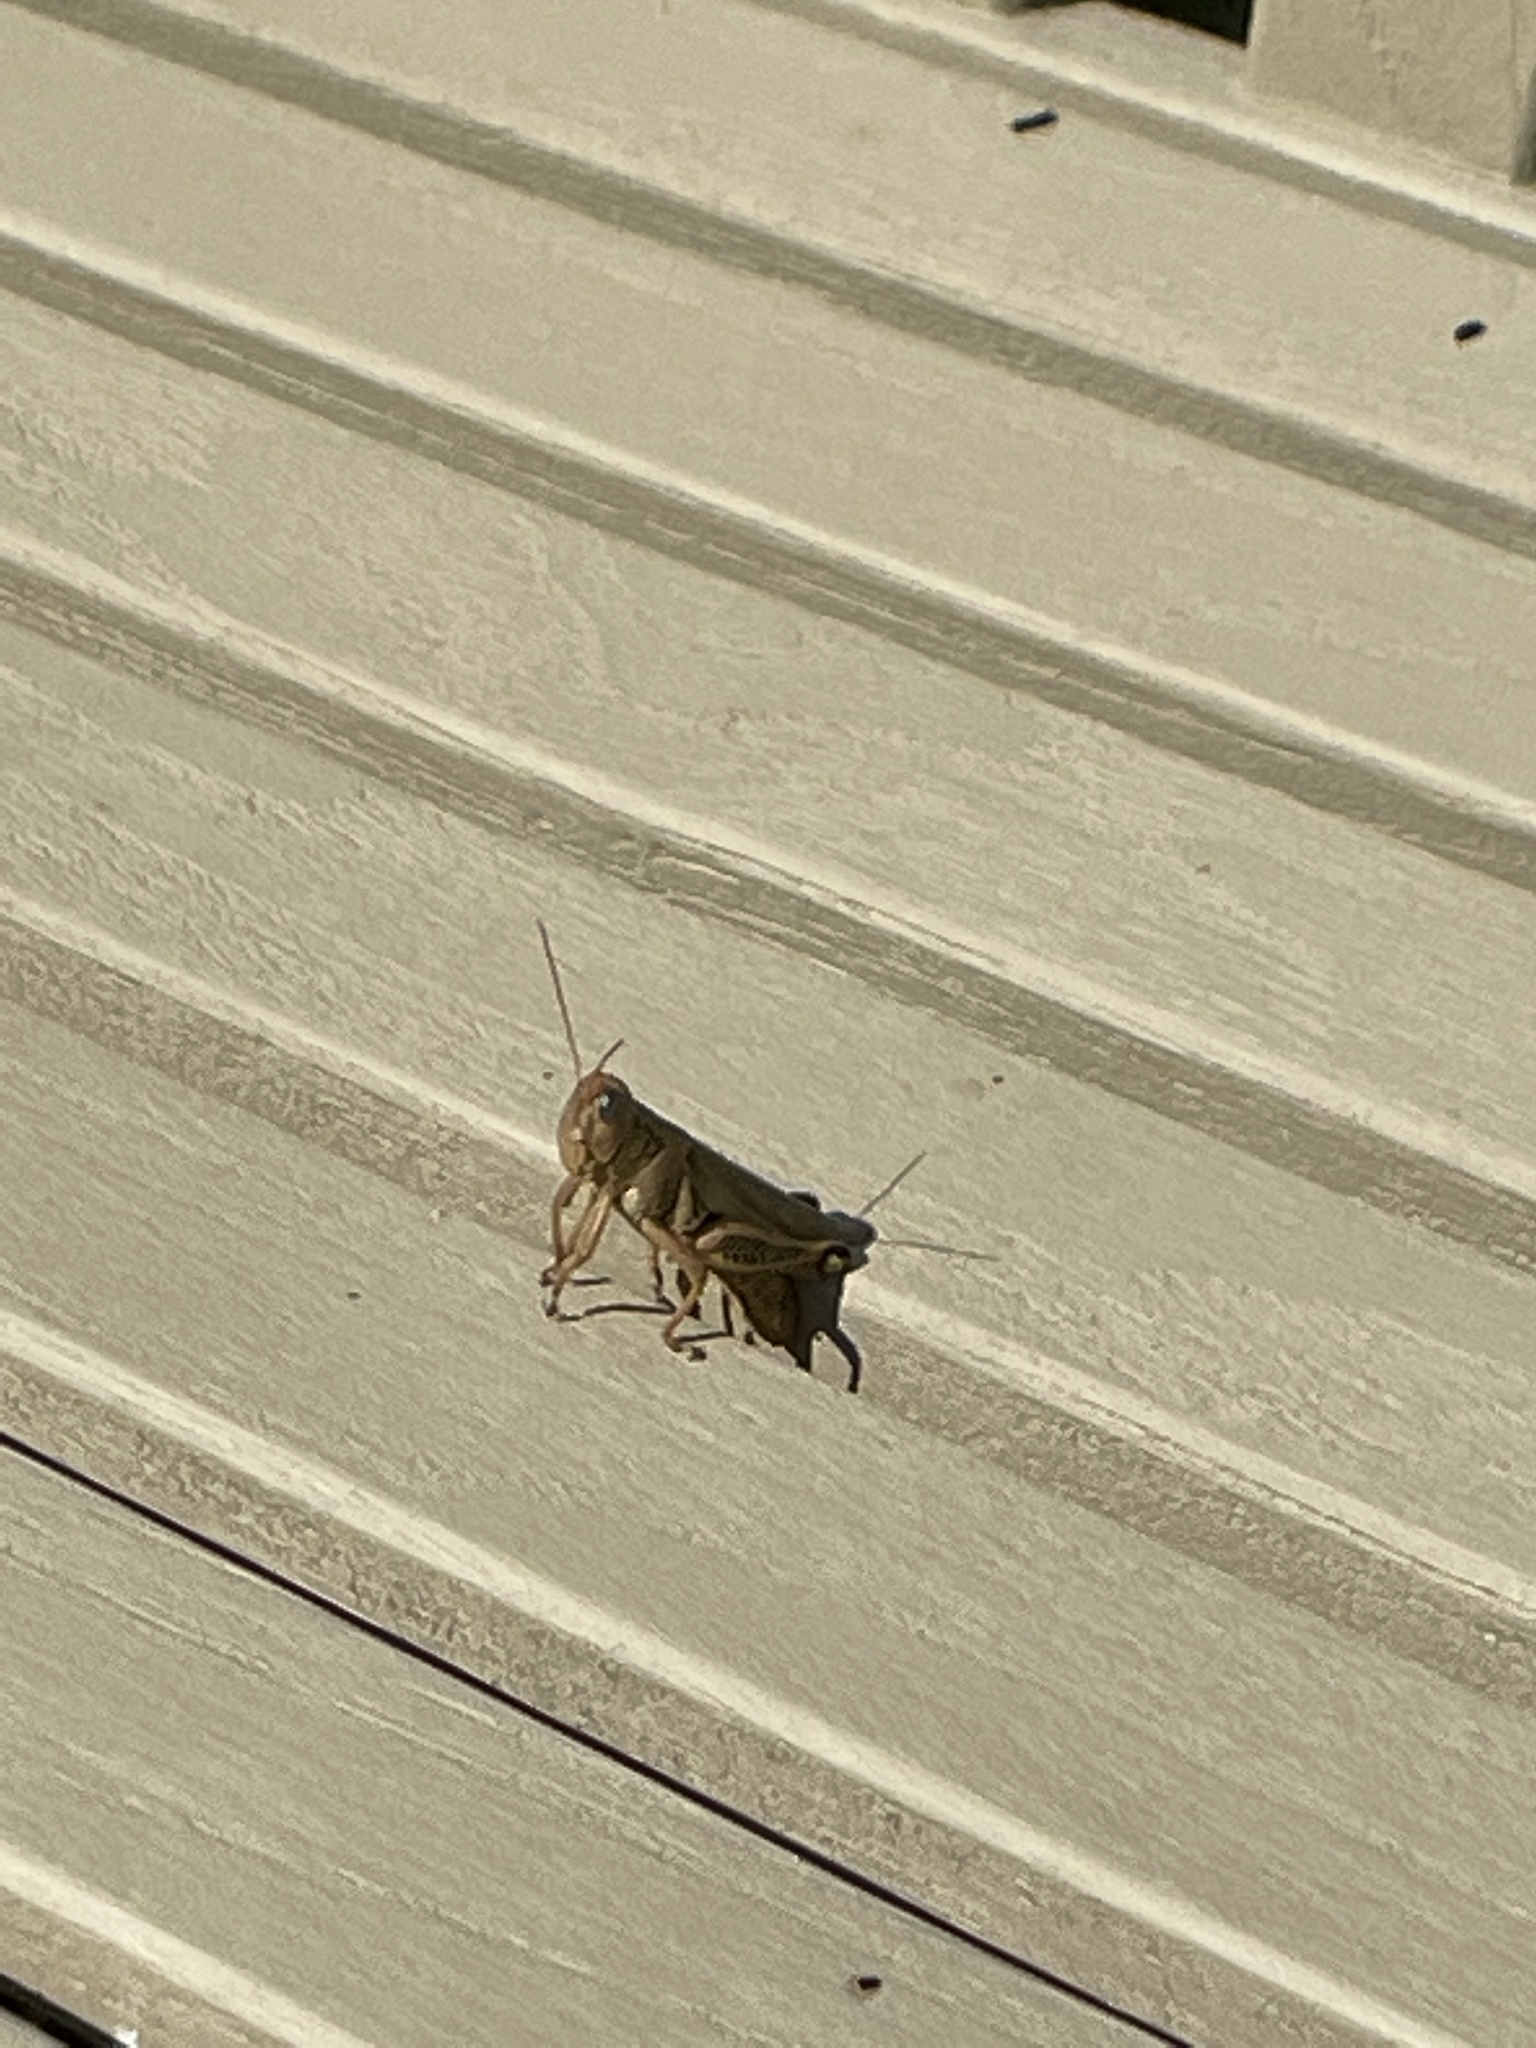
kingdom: Animalia
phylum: Arthropoda
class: Insecta
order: Orthoptera
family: Acrididae
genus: Melanoplus
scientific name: Melanoplus differentialis
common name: Differential grasshopper
